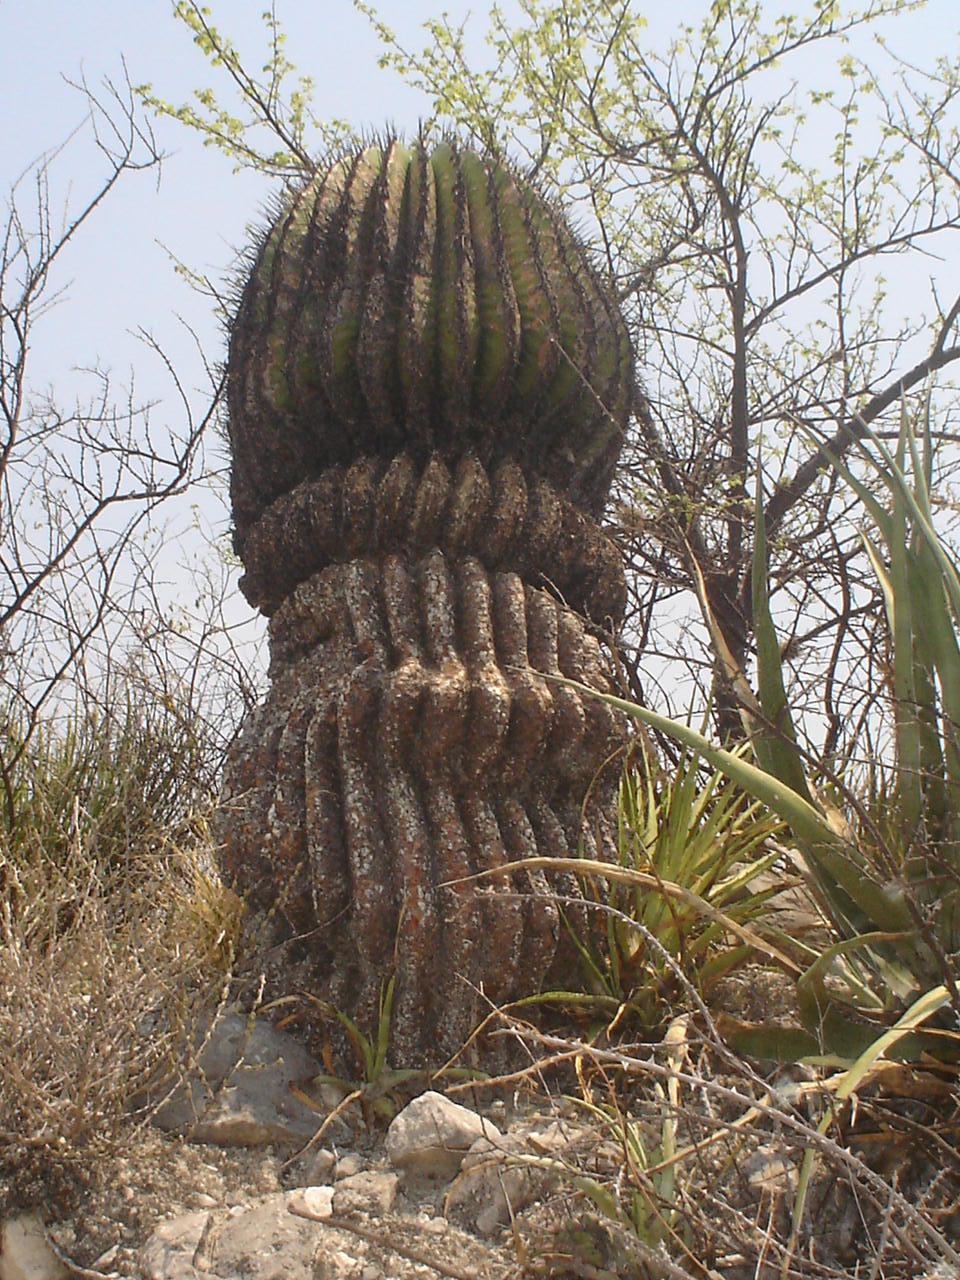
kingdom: Plantae
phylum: Tracheophyta
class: Magnoliopsida
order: Caryophyllales
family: Cactaceae
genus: Echinocactus
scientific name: Echinocactus platyacanthus
